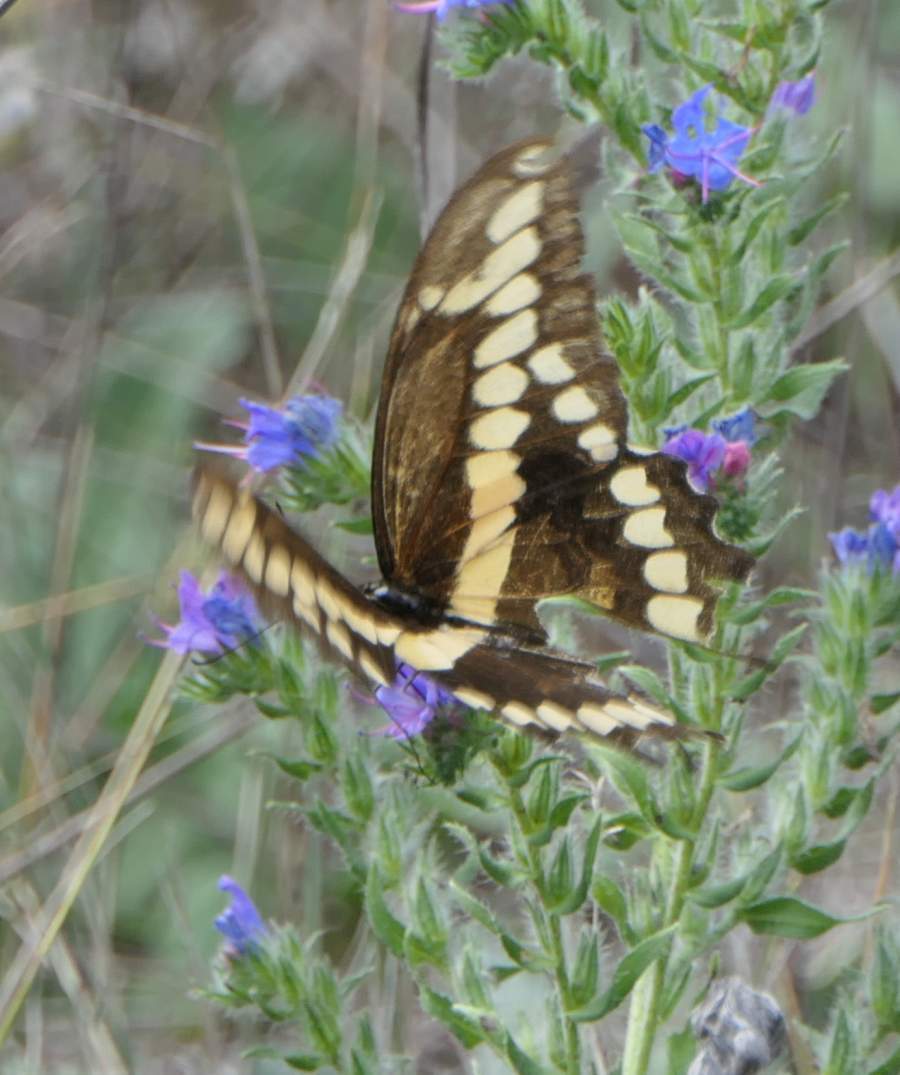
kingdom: Animalia
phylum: Arthropoda
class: Insecta
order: Lepidoptera
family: Papilionidae
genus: Papilio
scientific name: Papilio cresphontes
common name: Giant swallowtail
